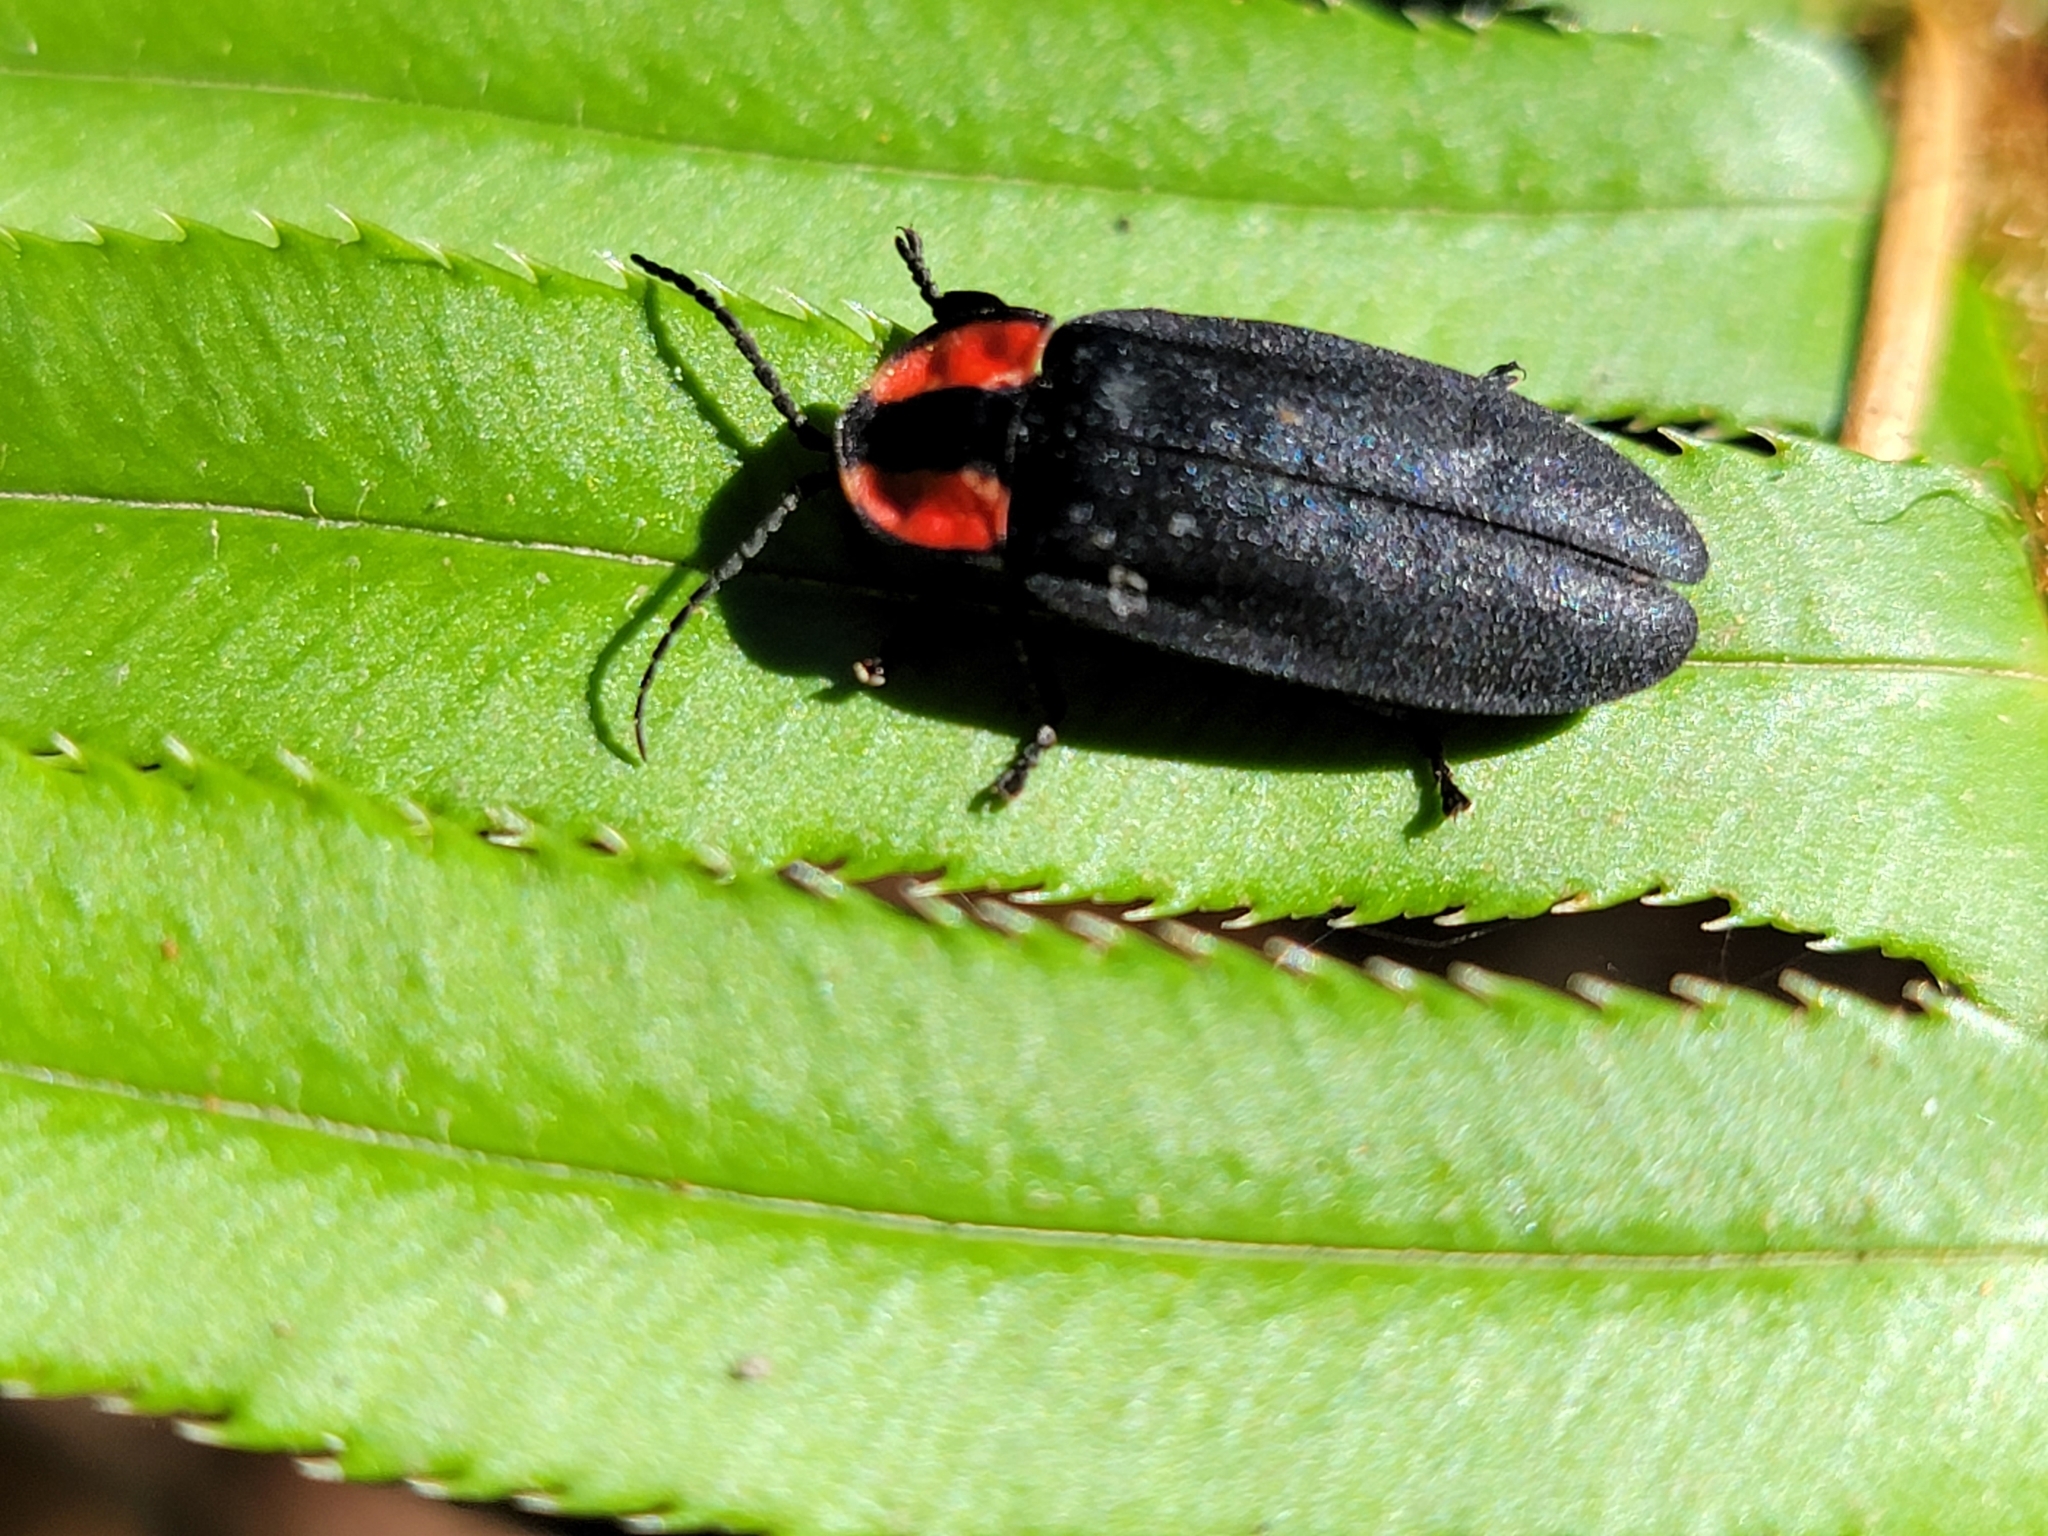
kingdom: Animalia
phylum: Arthropoda
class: Insecta
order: Coleoptera
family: Lampyridae
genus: Ellychnia
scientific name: Ellychnia megista
